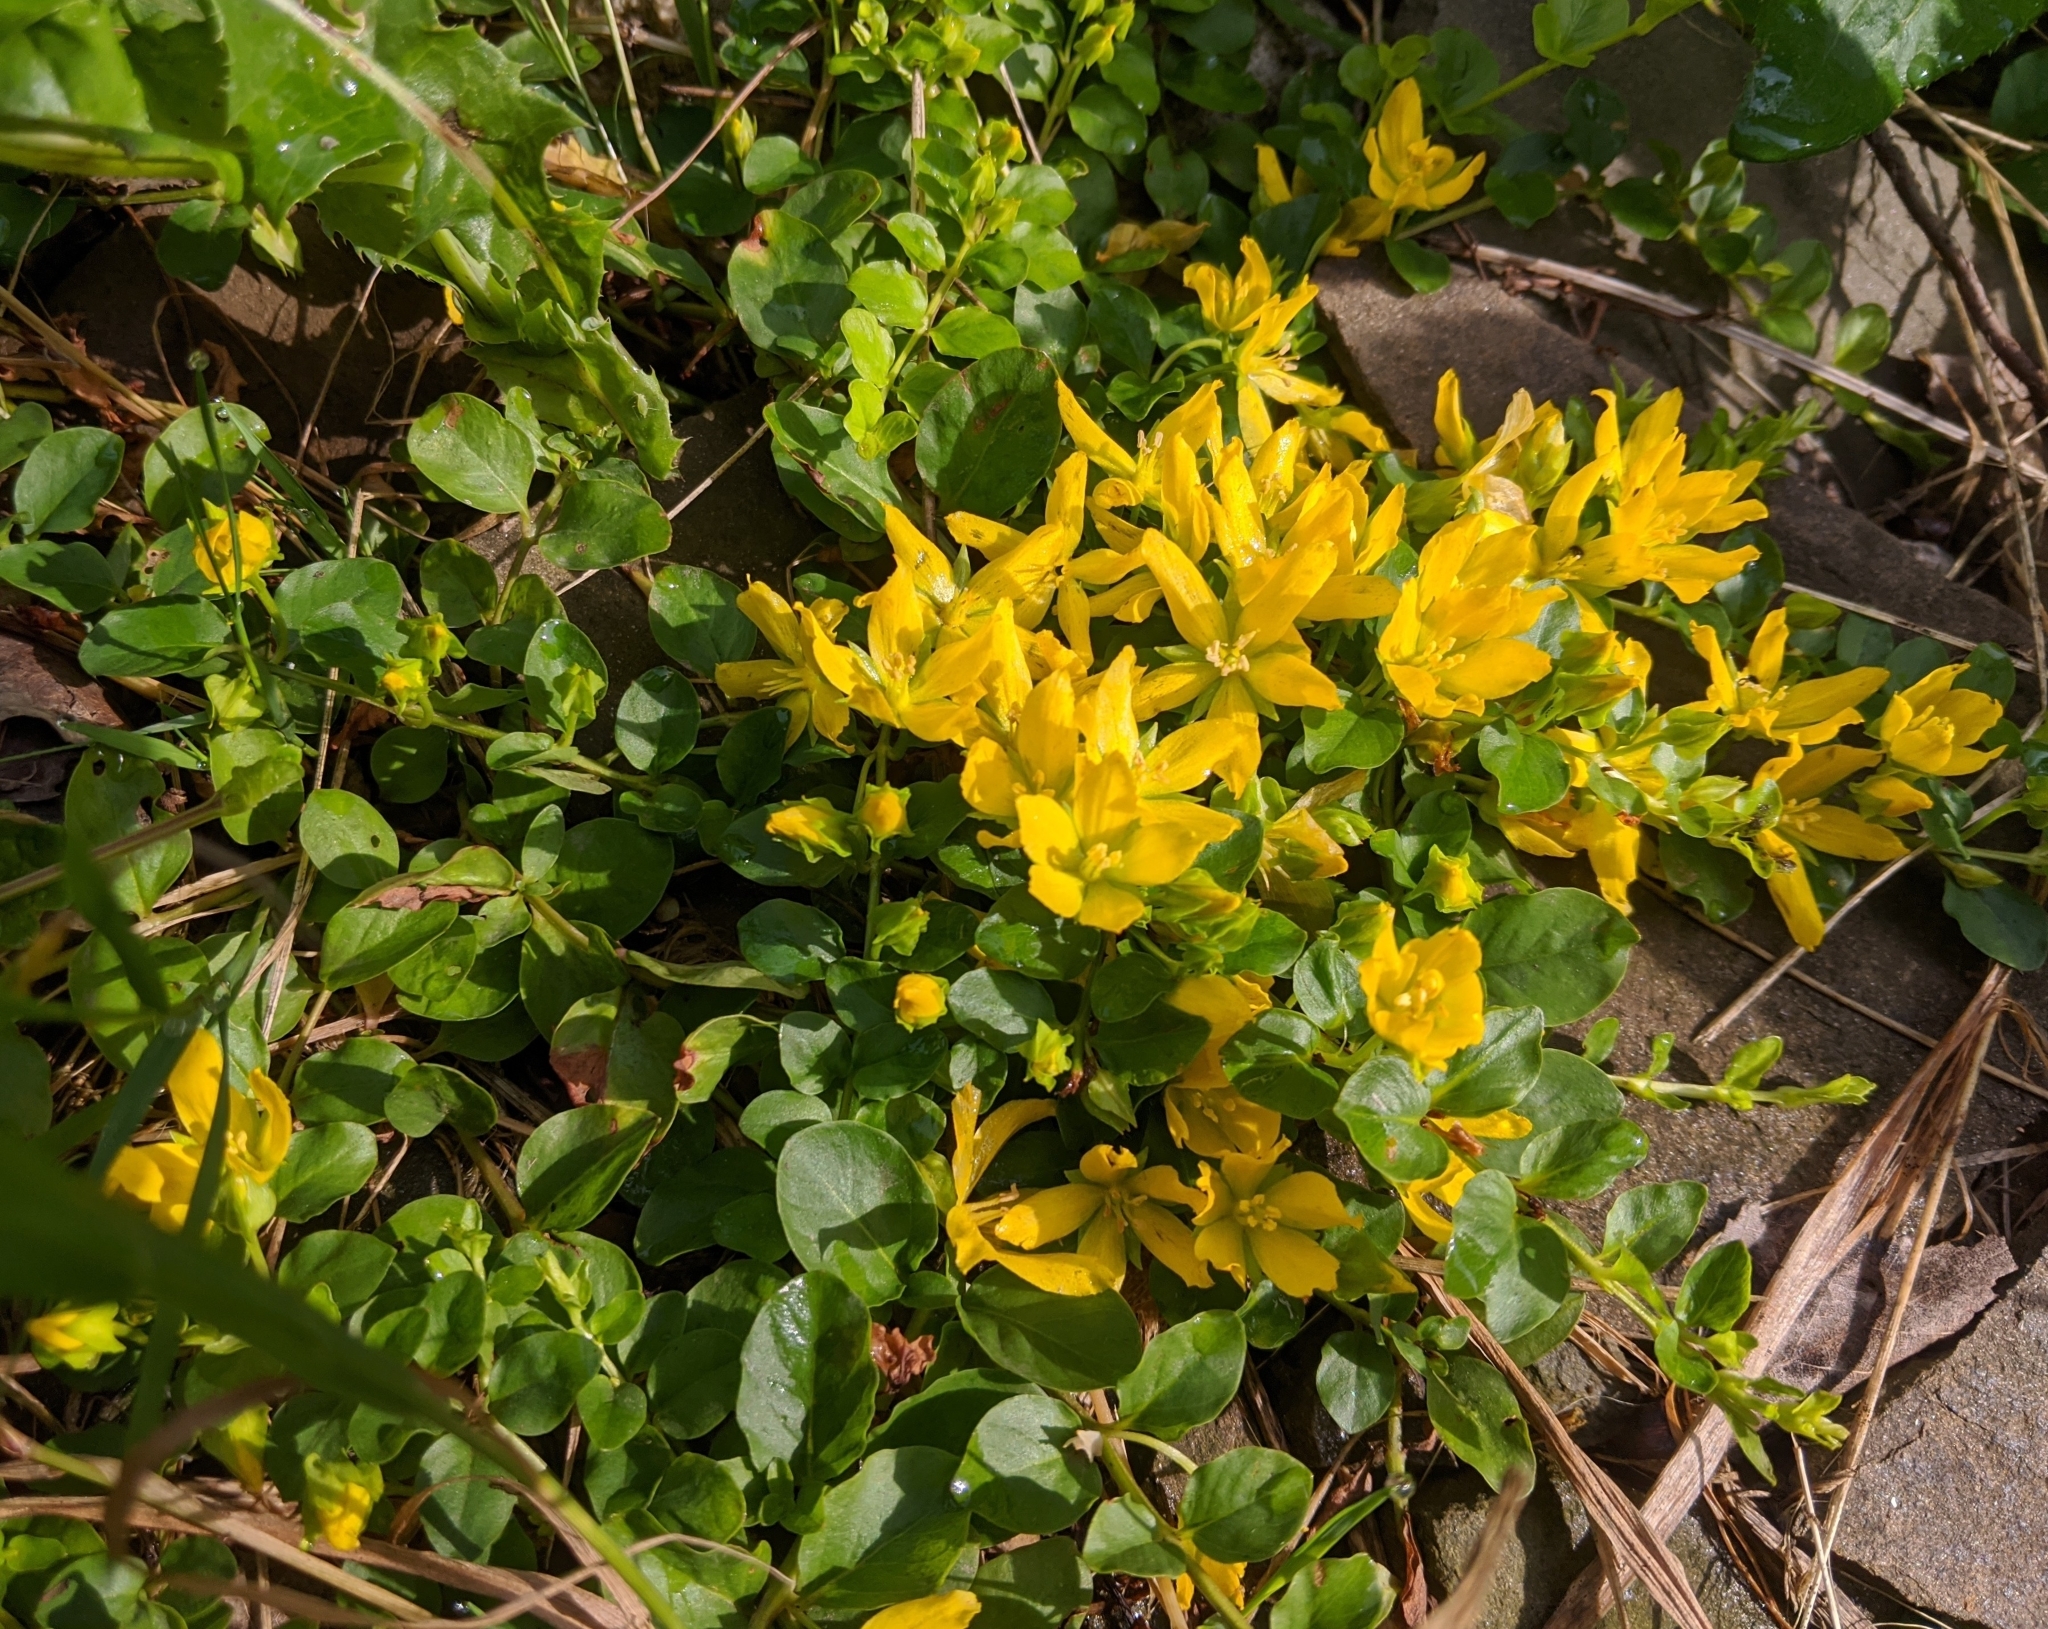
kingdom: Plantae
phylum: Tracheophyta
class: Magnoliopsida
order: Ericales
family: Primulaceae
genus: Lysimachia
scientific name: Lysimachia nummularia
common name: Moneywort
